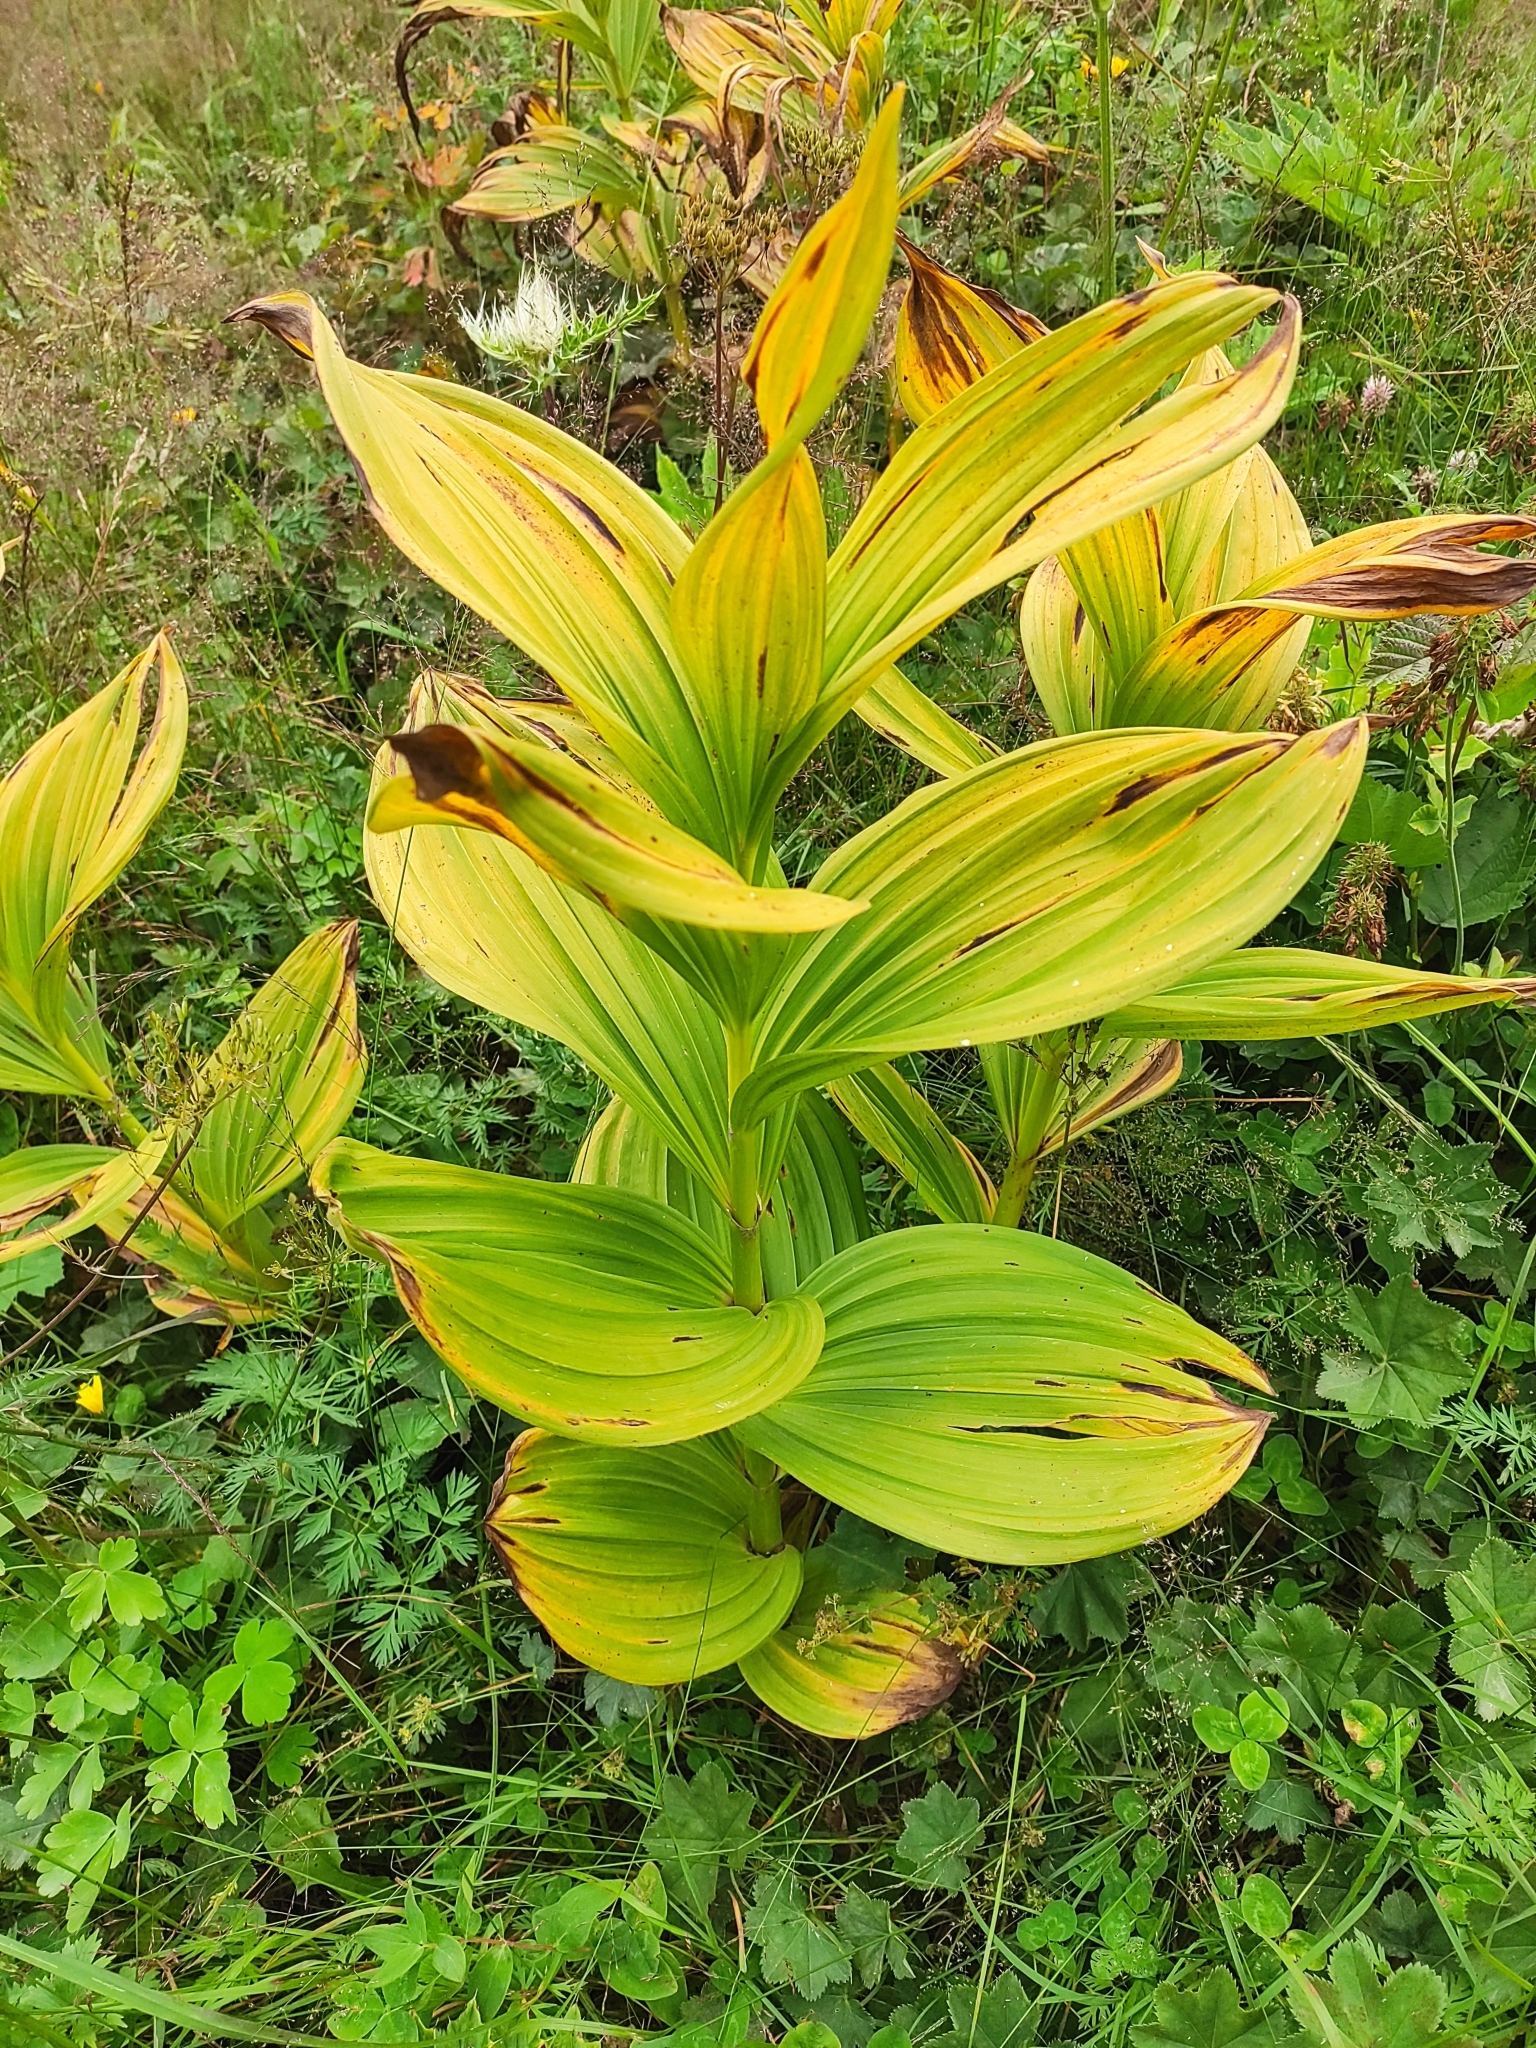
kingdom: Plantae
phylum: Tracheophyta
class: Liliopsida
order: Liliales
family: Melanthiaceae
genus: Veratrum
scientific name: Veratrum lobelianum
